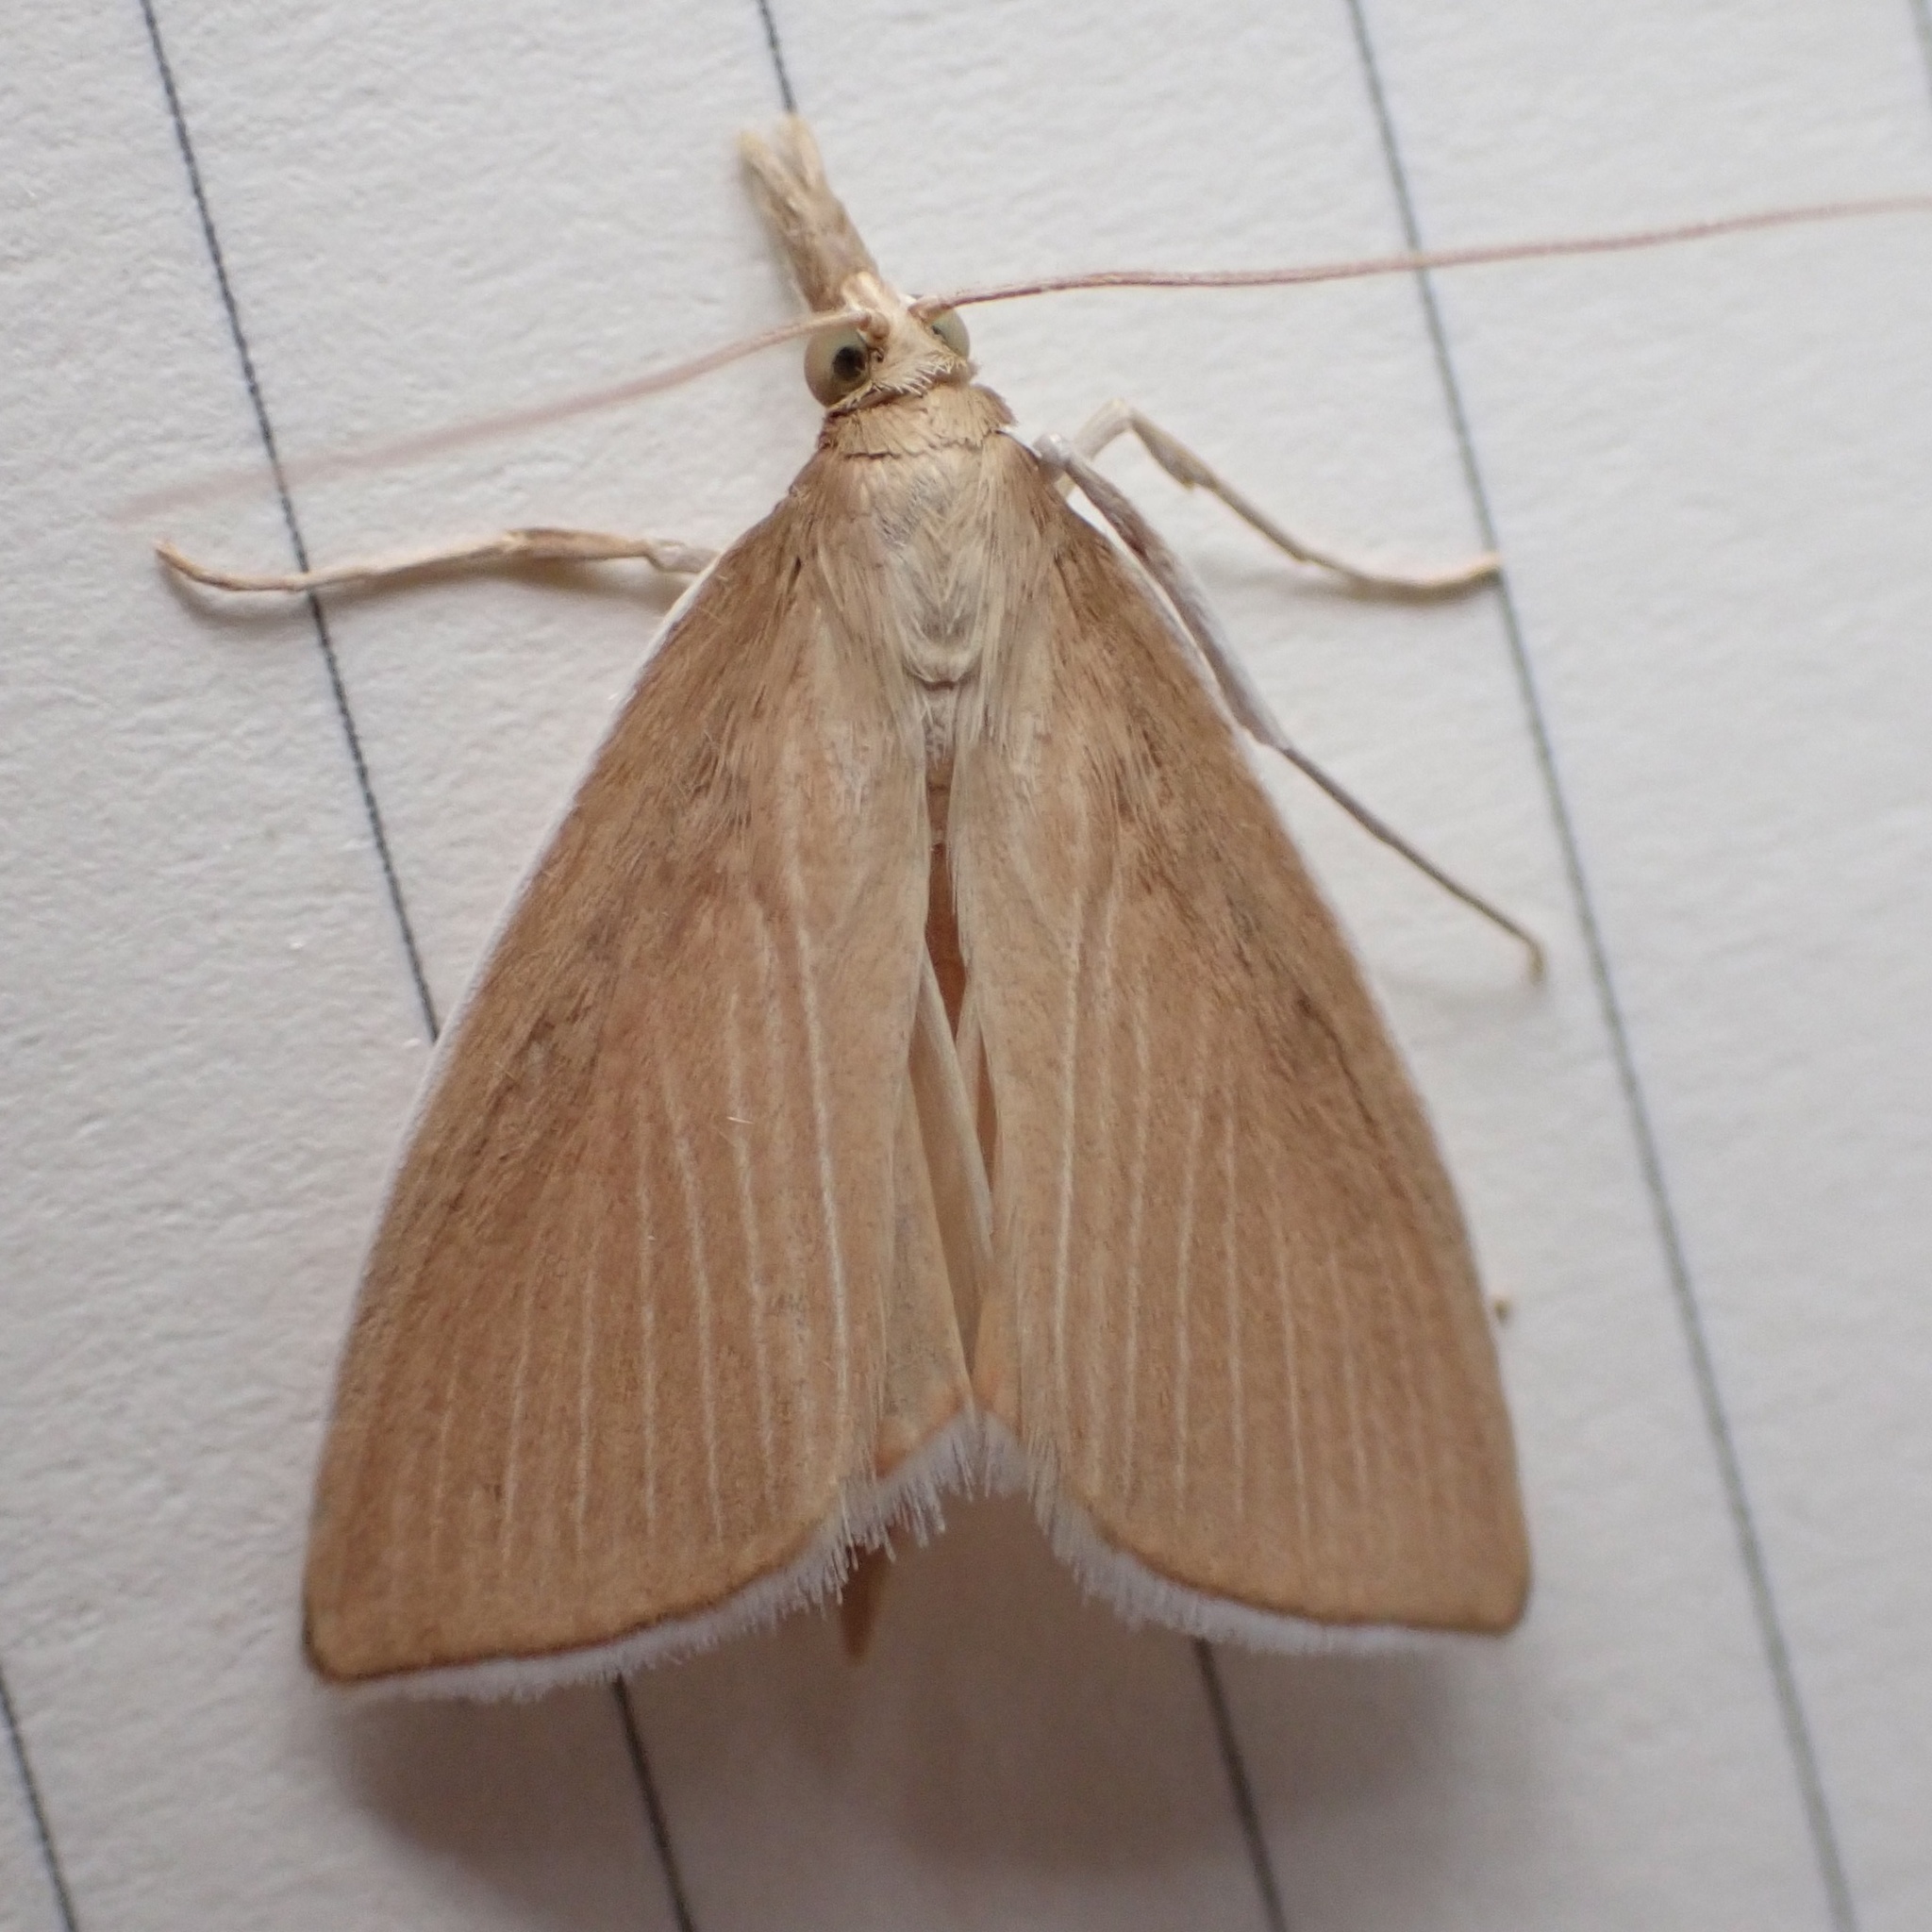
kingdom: Animalia
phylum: Arthropoda
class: Insecta
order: Lepidoptera
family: Crambidae
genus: Calamochrous
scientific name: Calamochrous Sclerocona acutella
